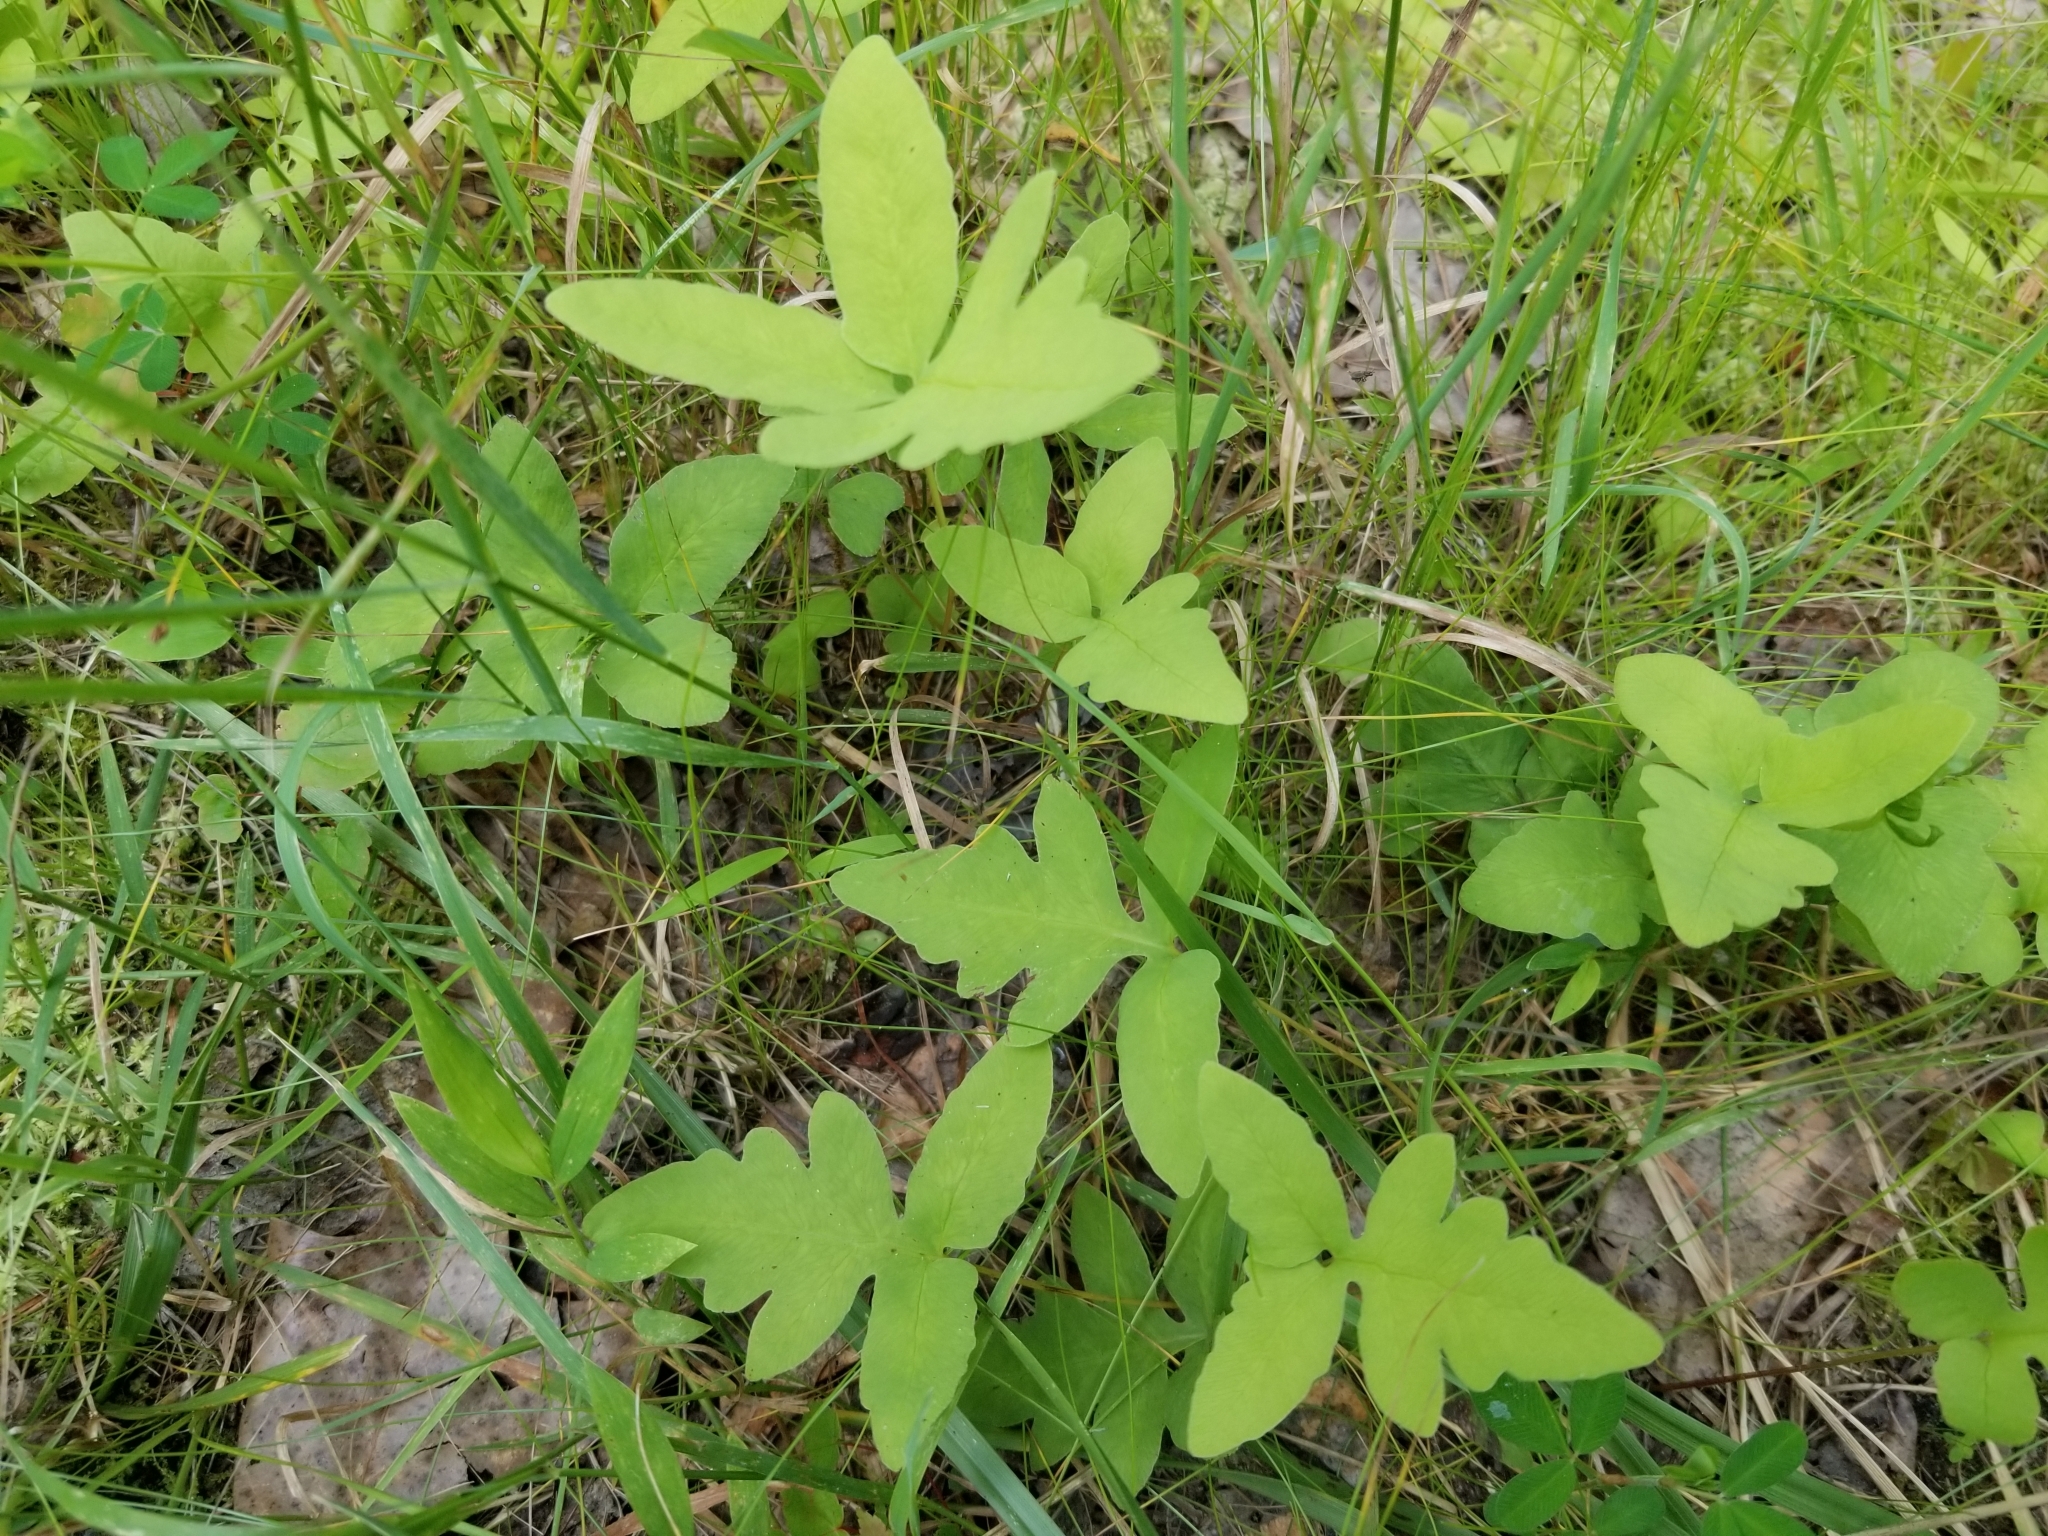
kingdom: Plantae
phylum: Tracheophyta
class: Polypodiopsida
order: Polypodiales
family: Onocleaceae
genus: Onoclea
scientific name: Onoclea sensibilis
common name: Sensitive fern
